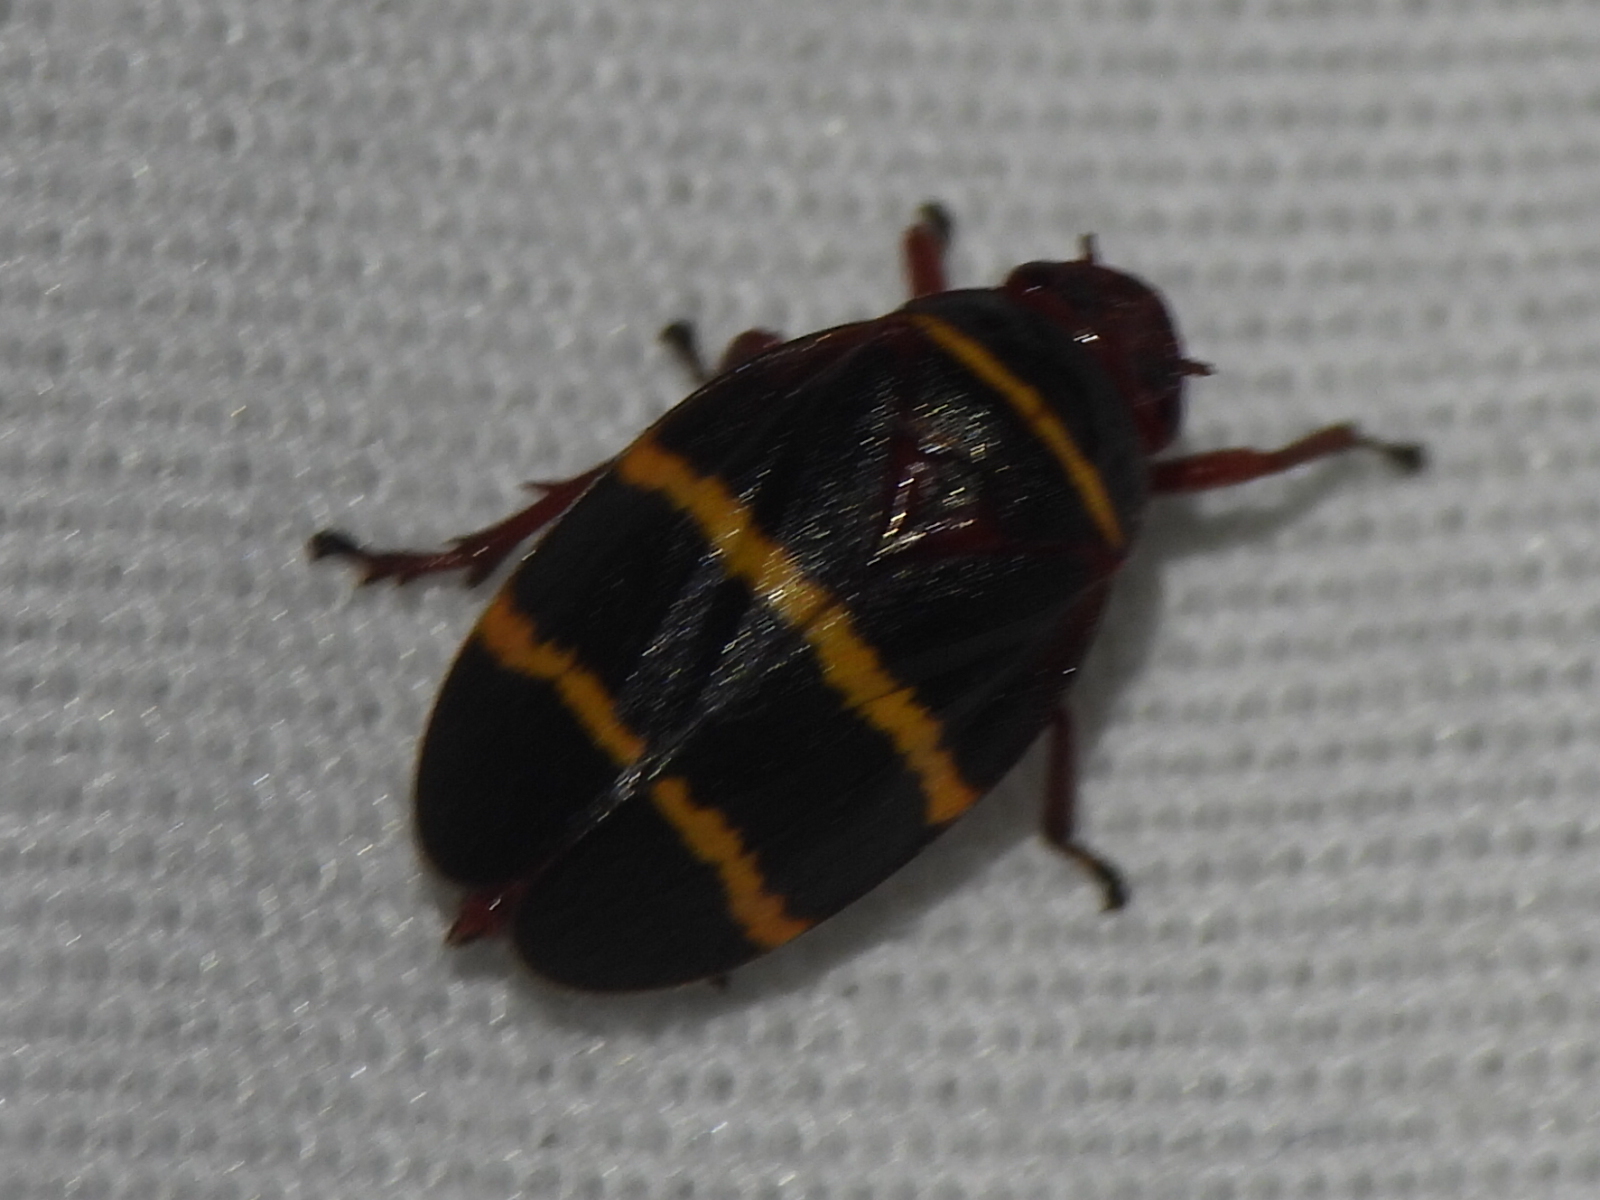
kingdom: Animalia
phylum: Arthropoda
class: Insecta
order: Hemiptera
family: Cercopidae
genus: Prosapia
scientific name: Prosapia bicincta
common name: Twolined spittlebug
